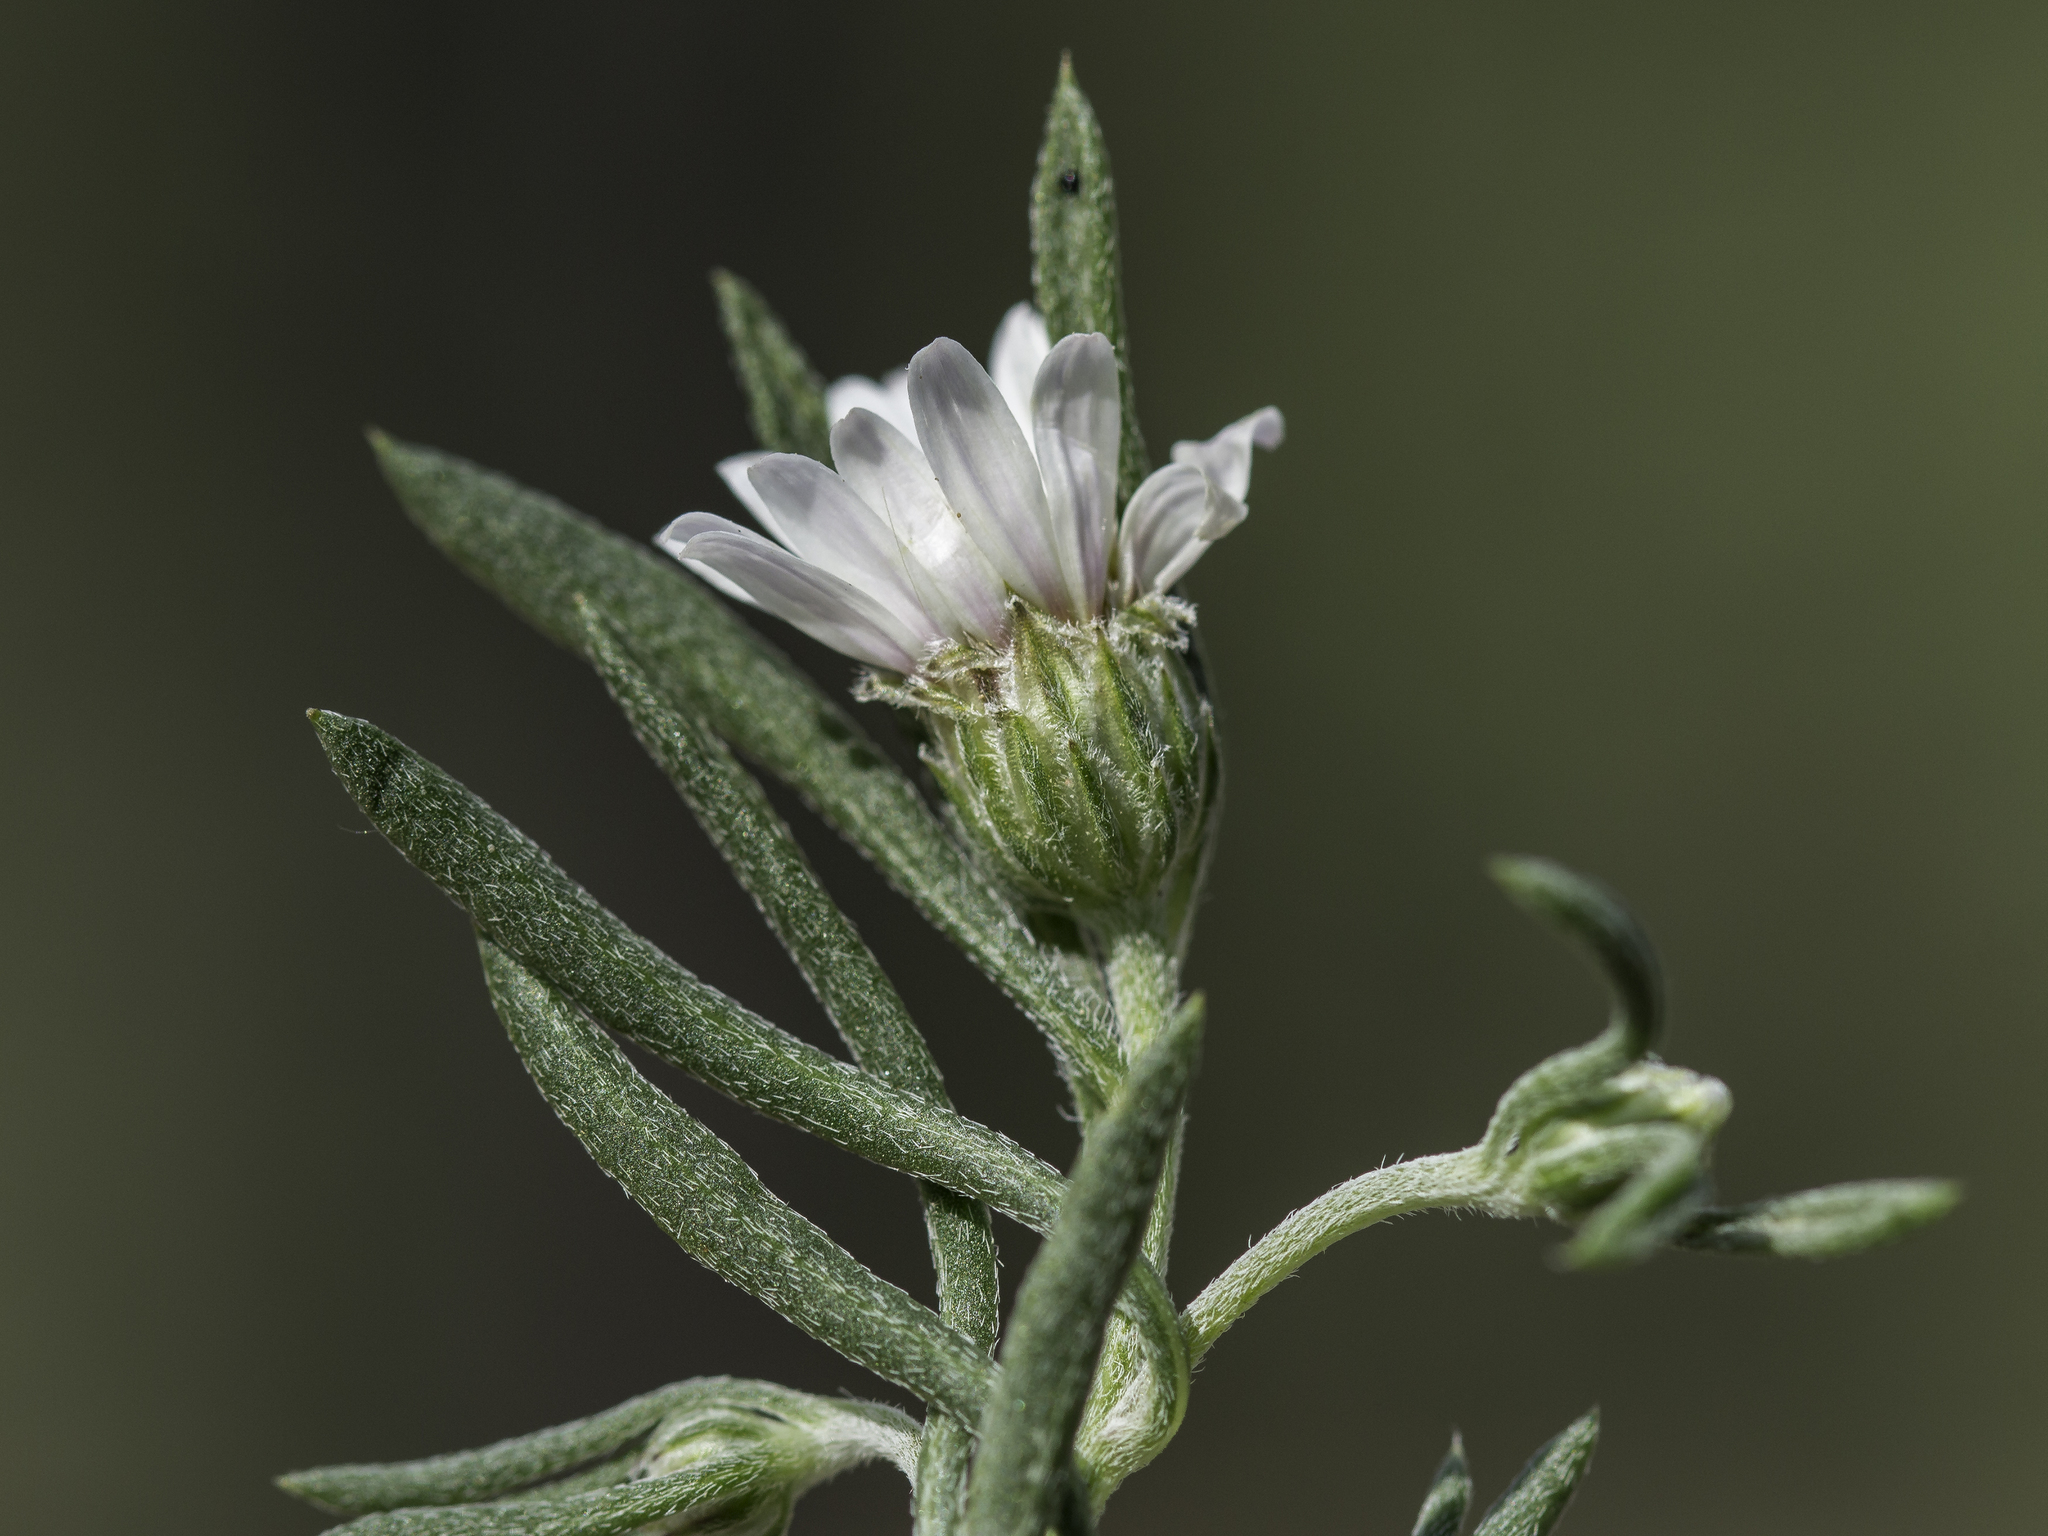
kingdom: Plantae
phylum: Tracheophyta
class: Magnoliopsida
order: Asterales
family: Asteraceae
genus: Townsendia
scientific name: Townsendia fendleri
